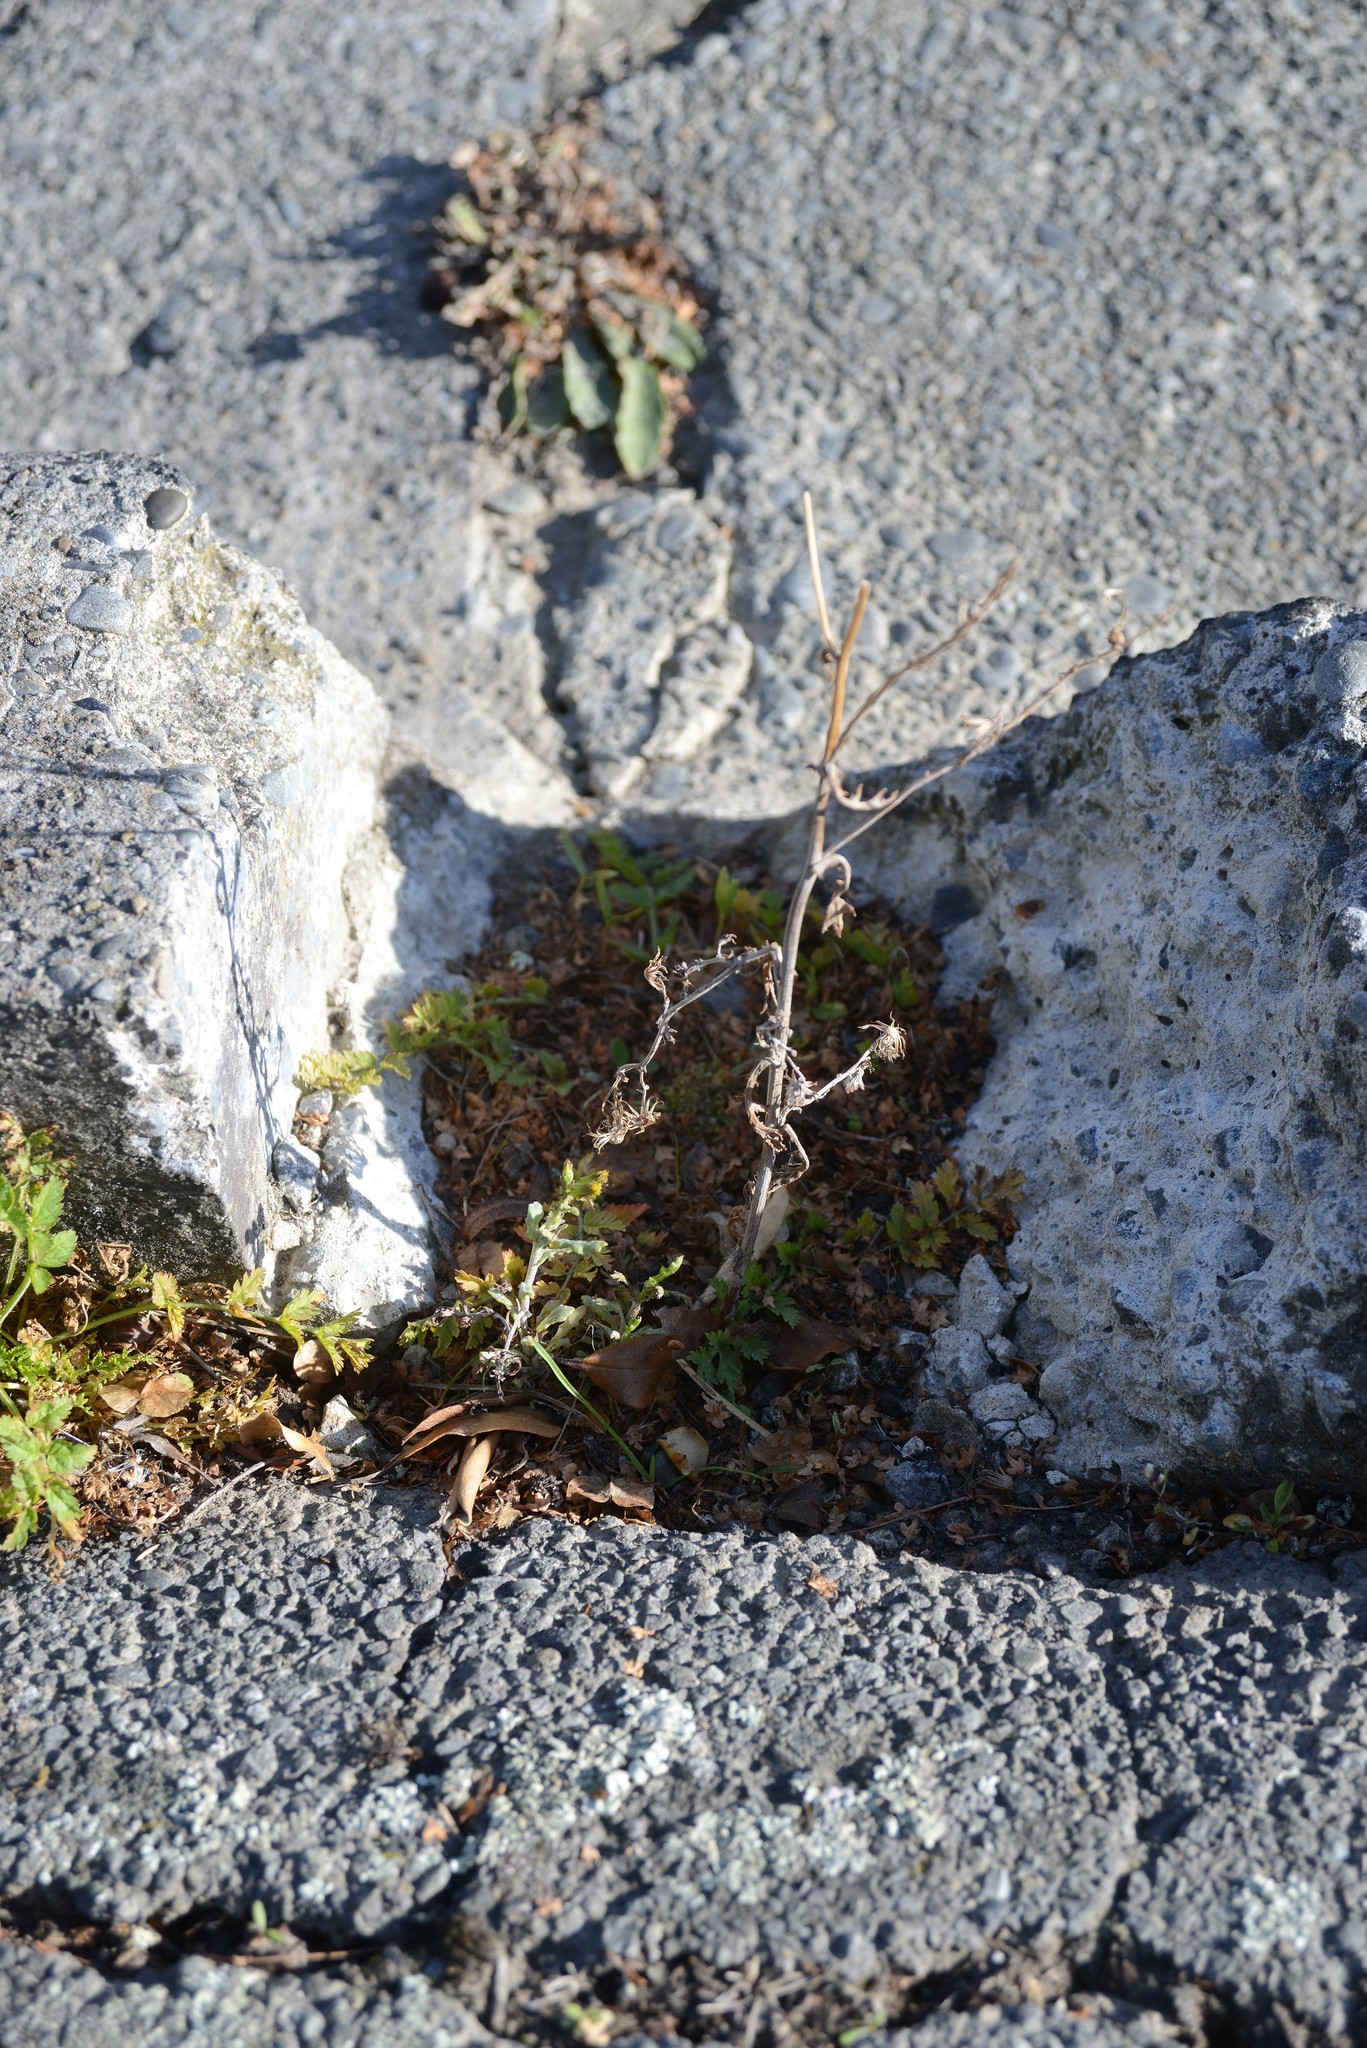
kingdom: Plantae
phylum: Tracheophyta
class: Magnoliopsida
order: Asterales
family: Asteraceae
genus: Senecio
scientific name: Senecio vulgaris
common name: Old-man-in-the-spring
